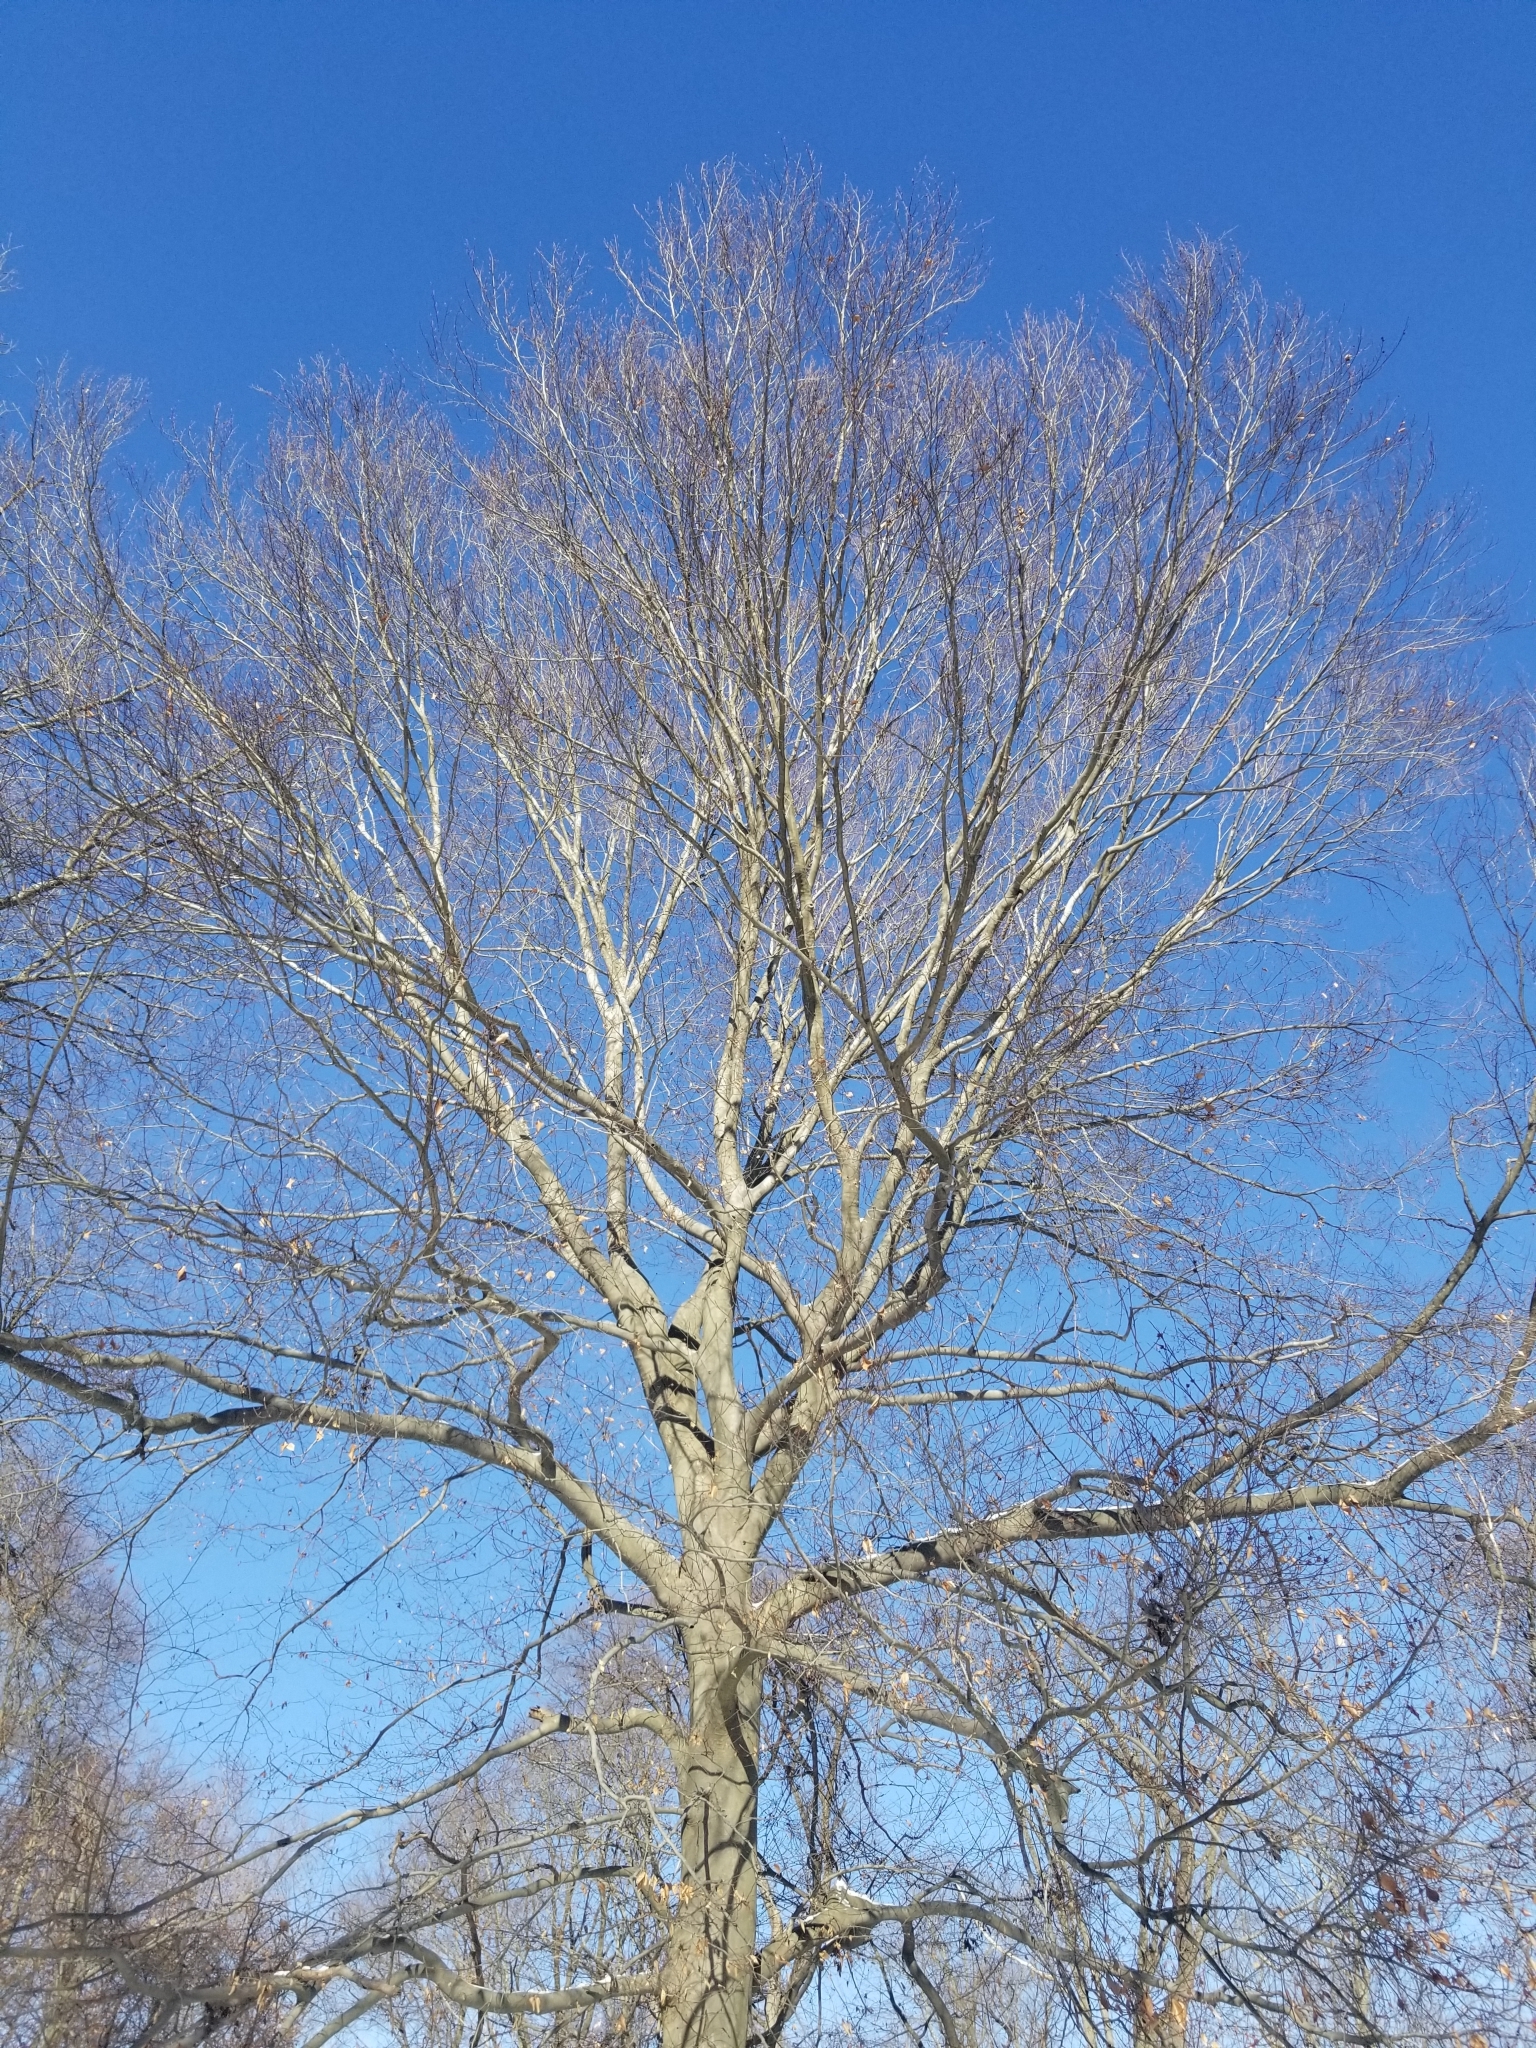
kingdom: Plantae
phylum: Tracheophyta
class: Magnoliopsida
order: Fagales
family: Fagaceae
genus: Fagus
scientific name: Fagus grandifolia
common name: American beech
